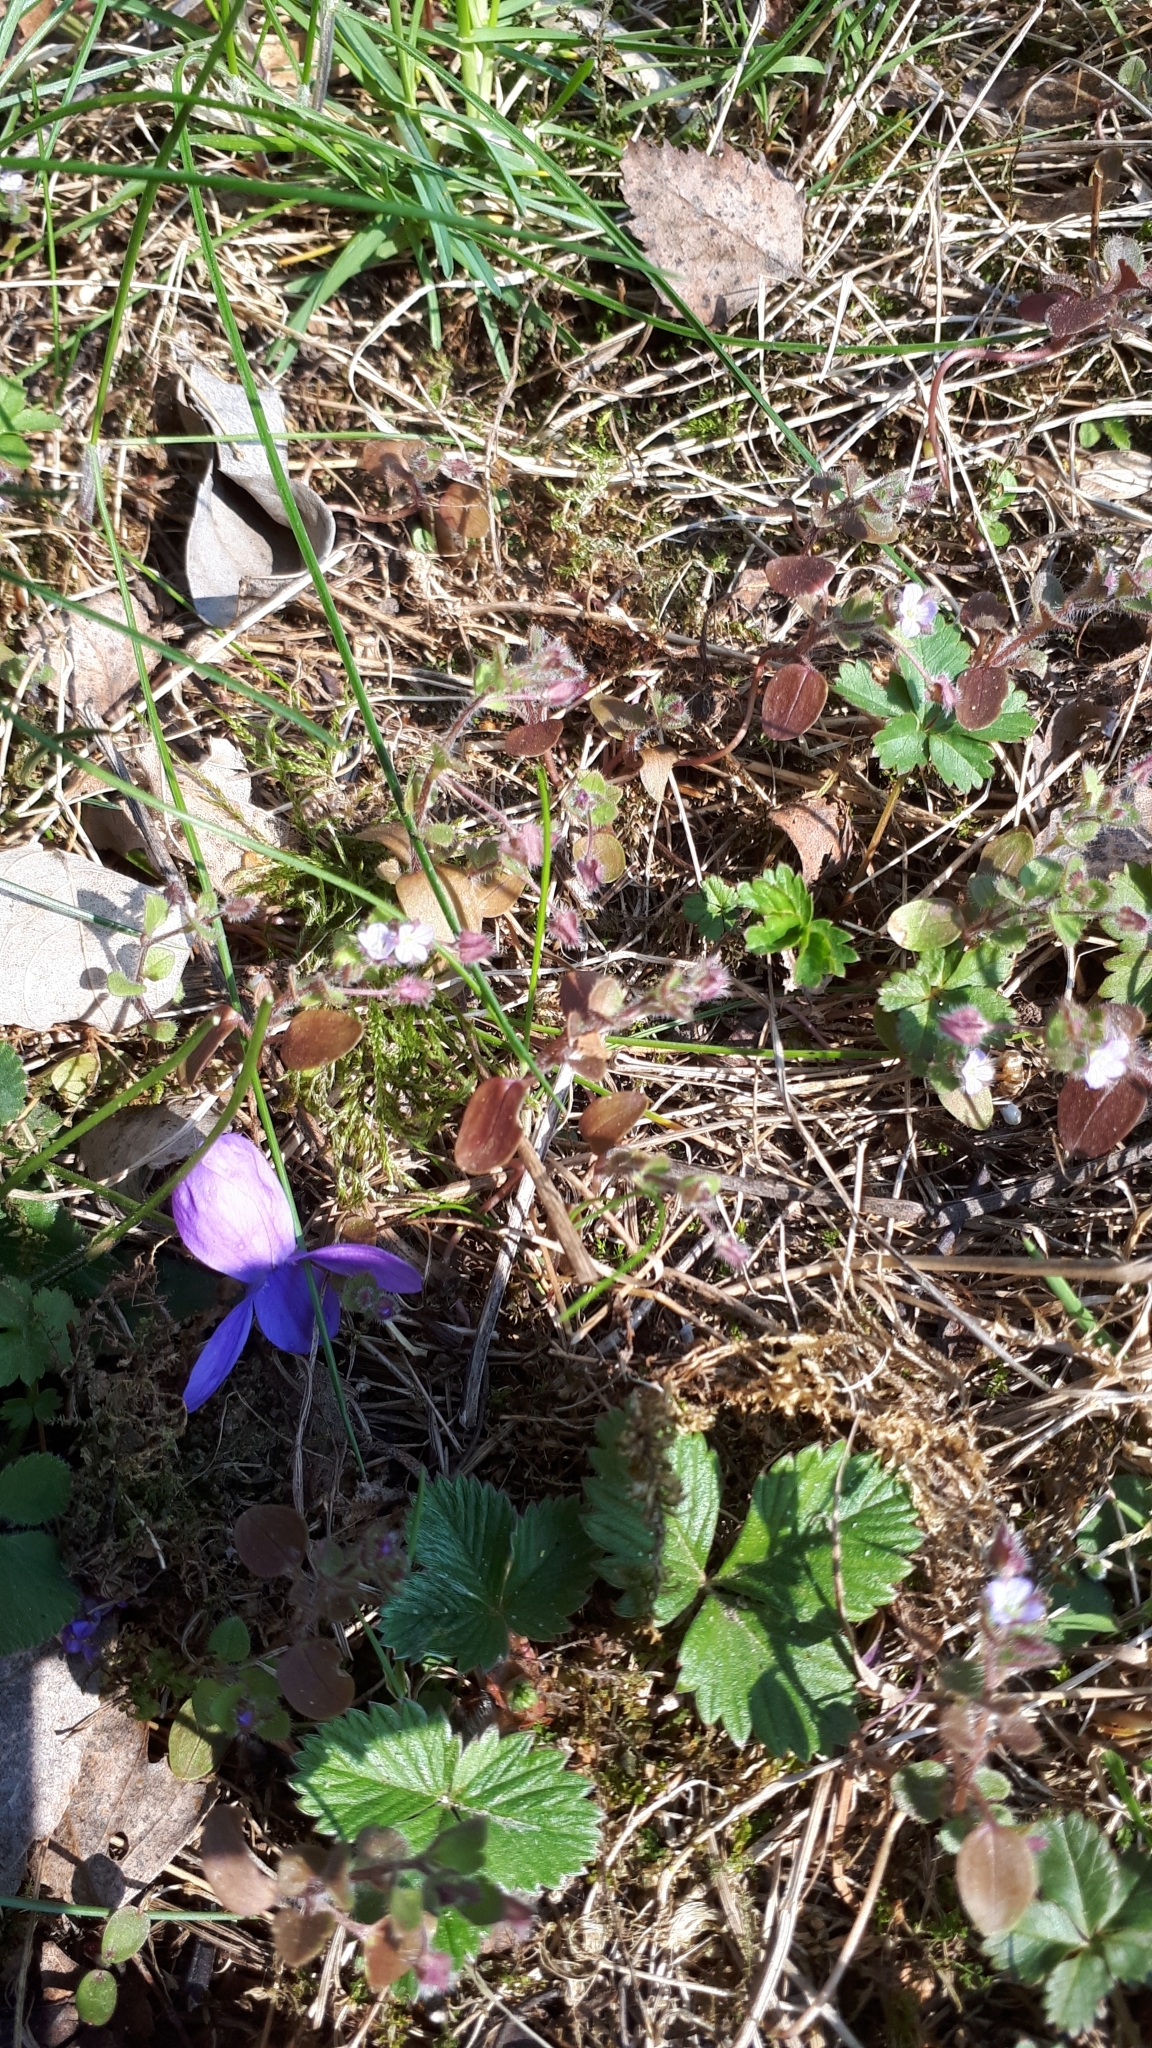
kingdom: Plantae
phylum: Tracheophyta
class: Magnoliopsida
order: Lamiales
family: Plantaginaceae
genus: Veronica
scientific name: Veronica sublobata
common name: False ivy-leaved speedwell
